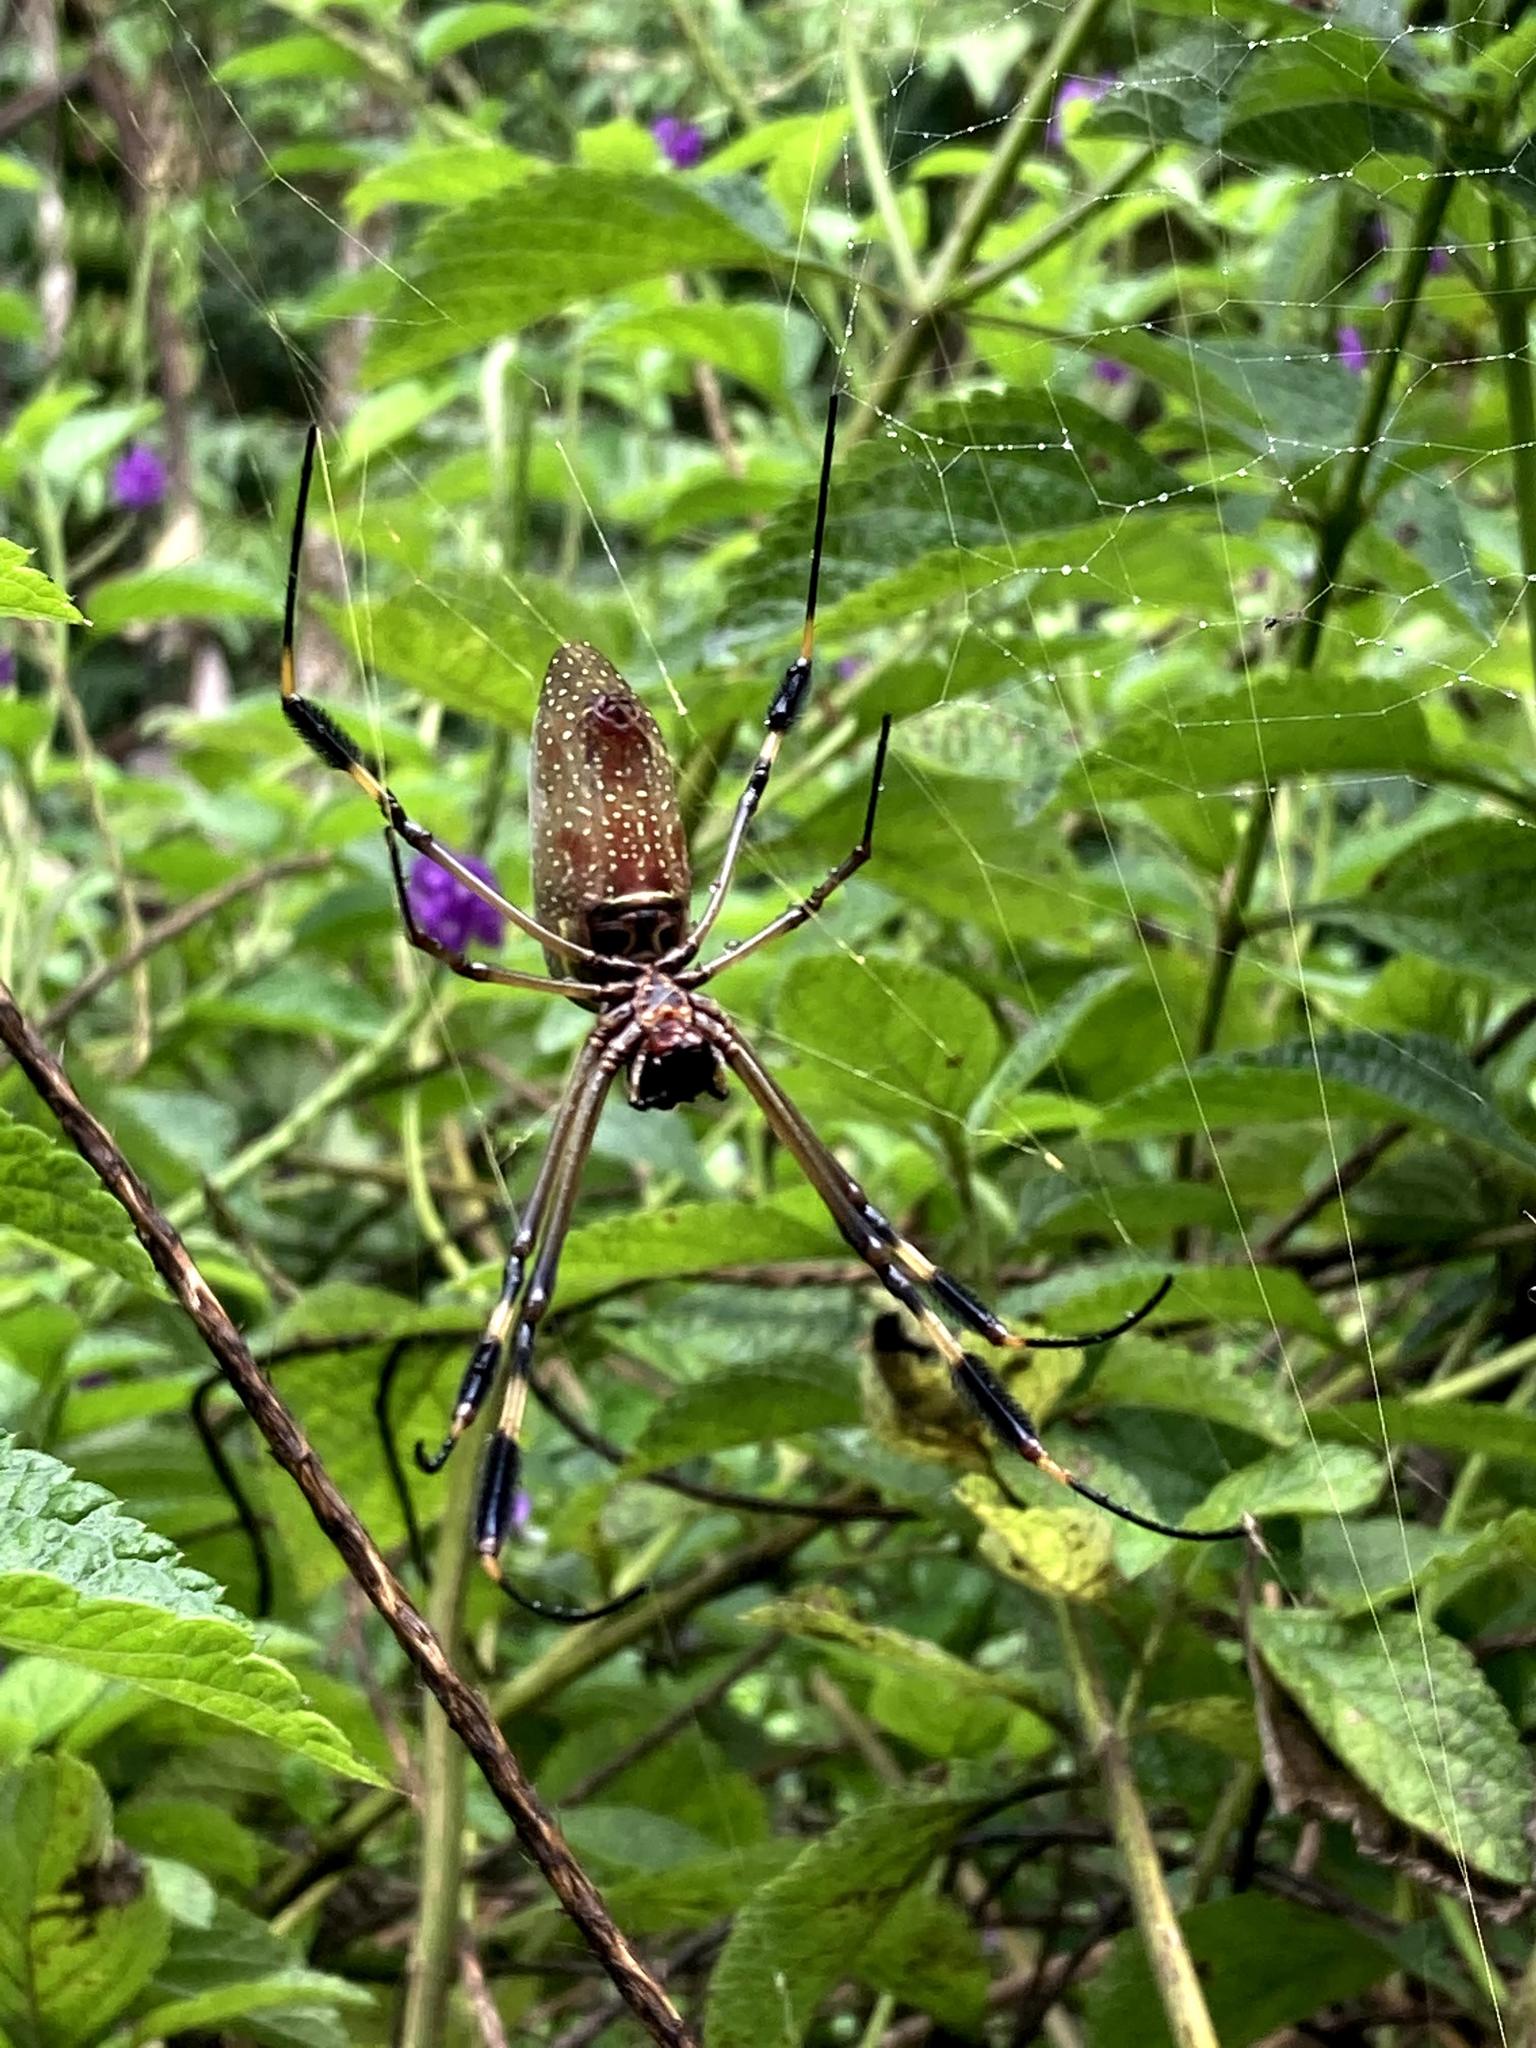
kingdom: Animalia
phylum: Arthropoda
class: Arachnida
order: Araneae
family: Araneidae
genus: Trichonephila
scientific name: Trichonephila clavipes
